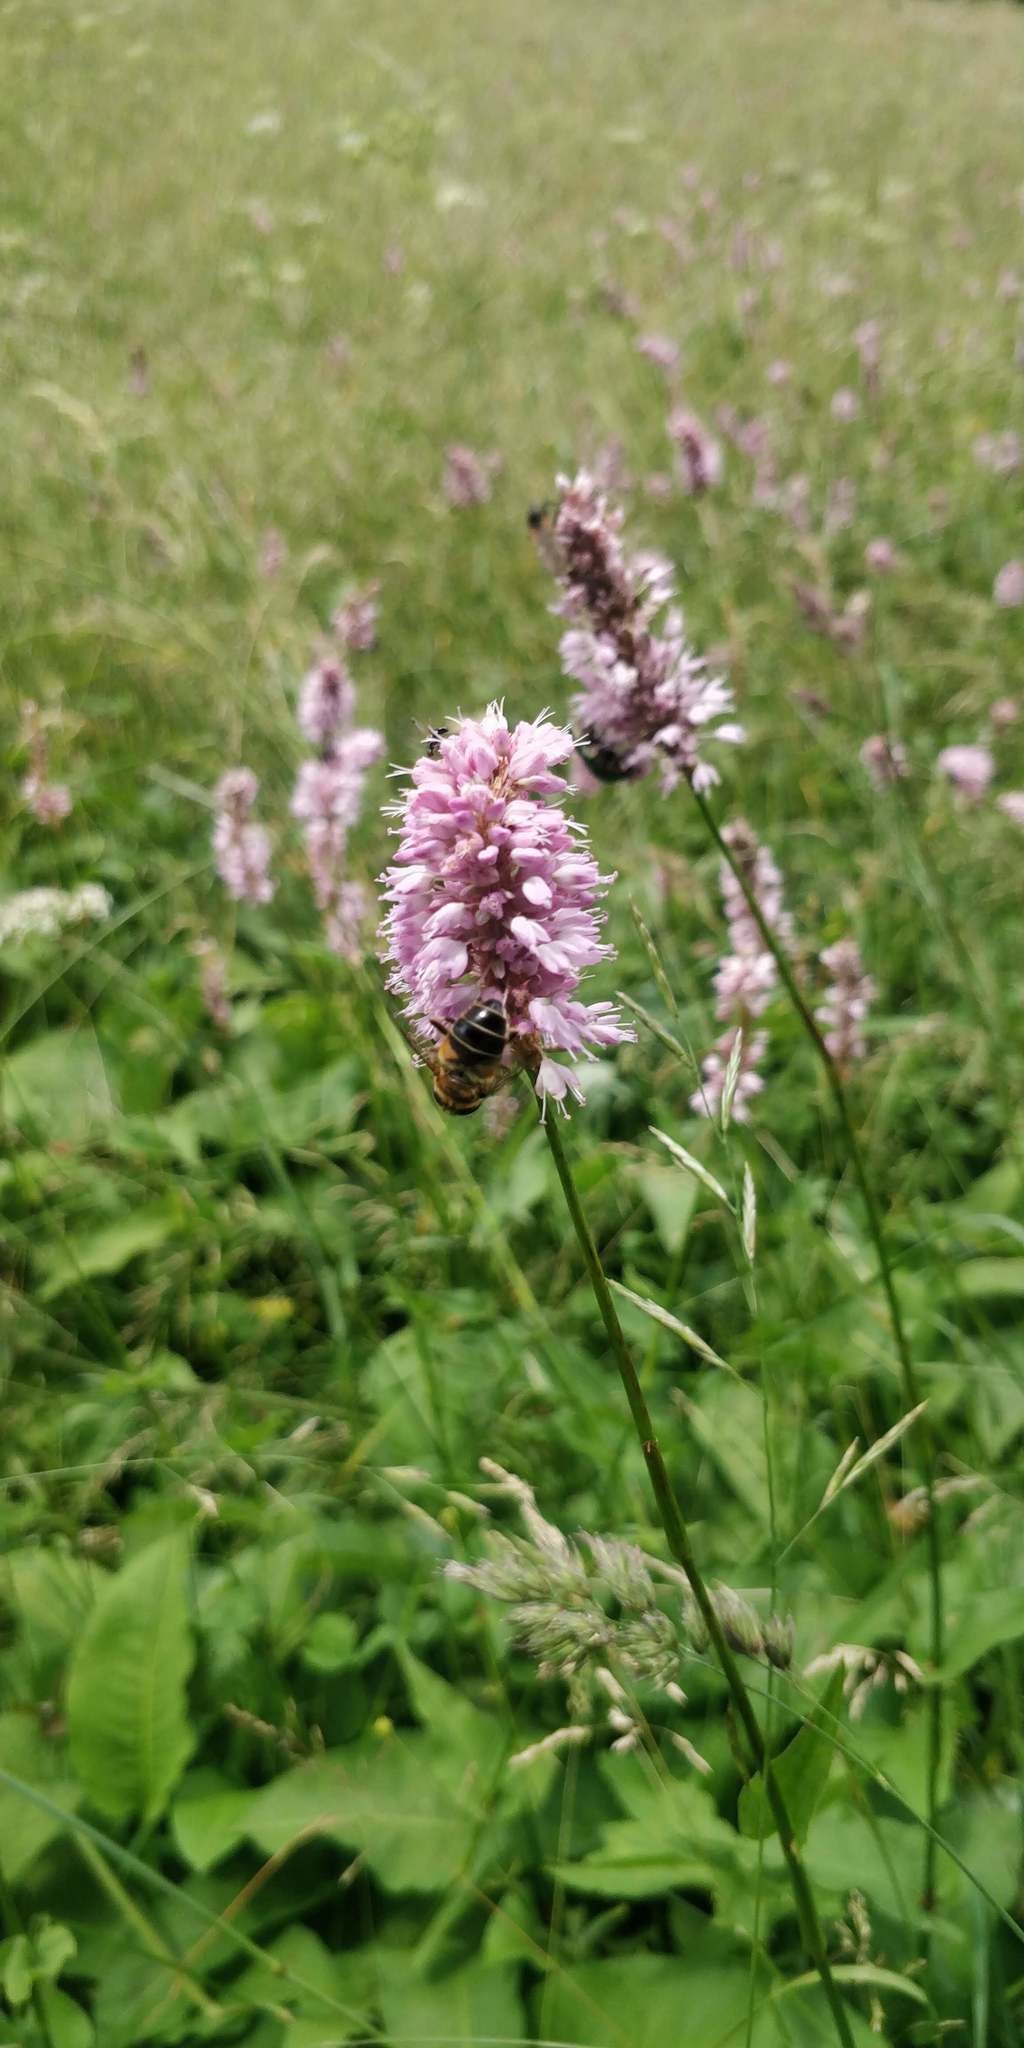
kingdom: Plantae
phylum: Tracheophyta
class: Magnoliopsida
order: Caryophyllales
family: Polygonaceae
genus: Bistorta
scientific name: Bistorta officinalis
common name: Common bistort
